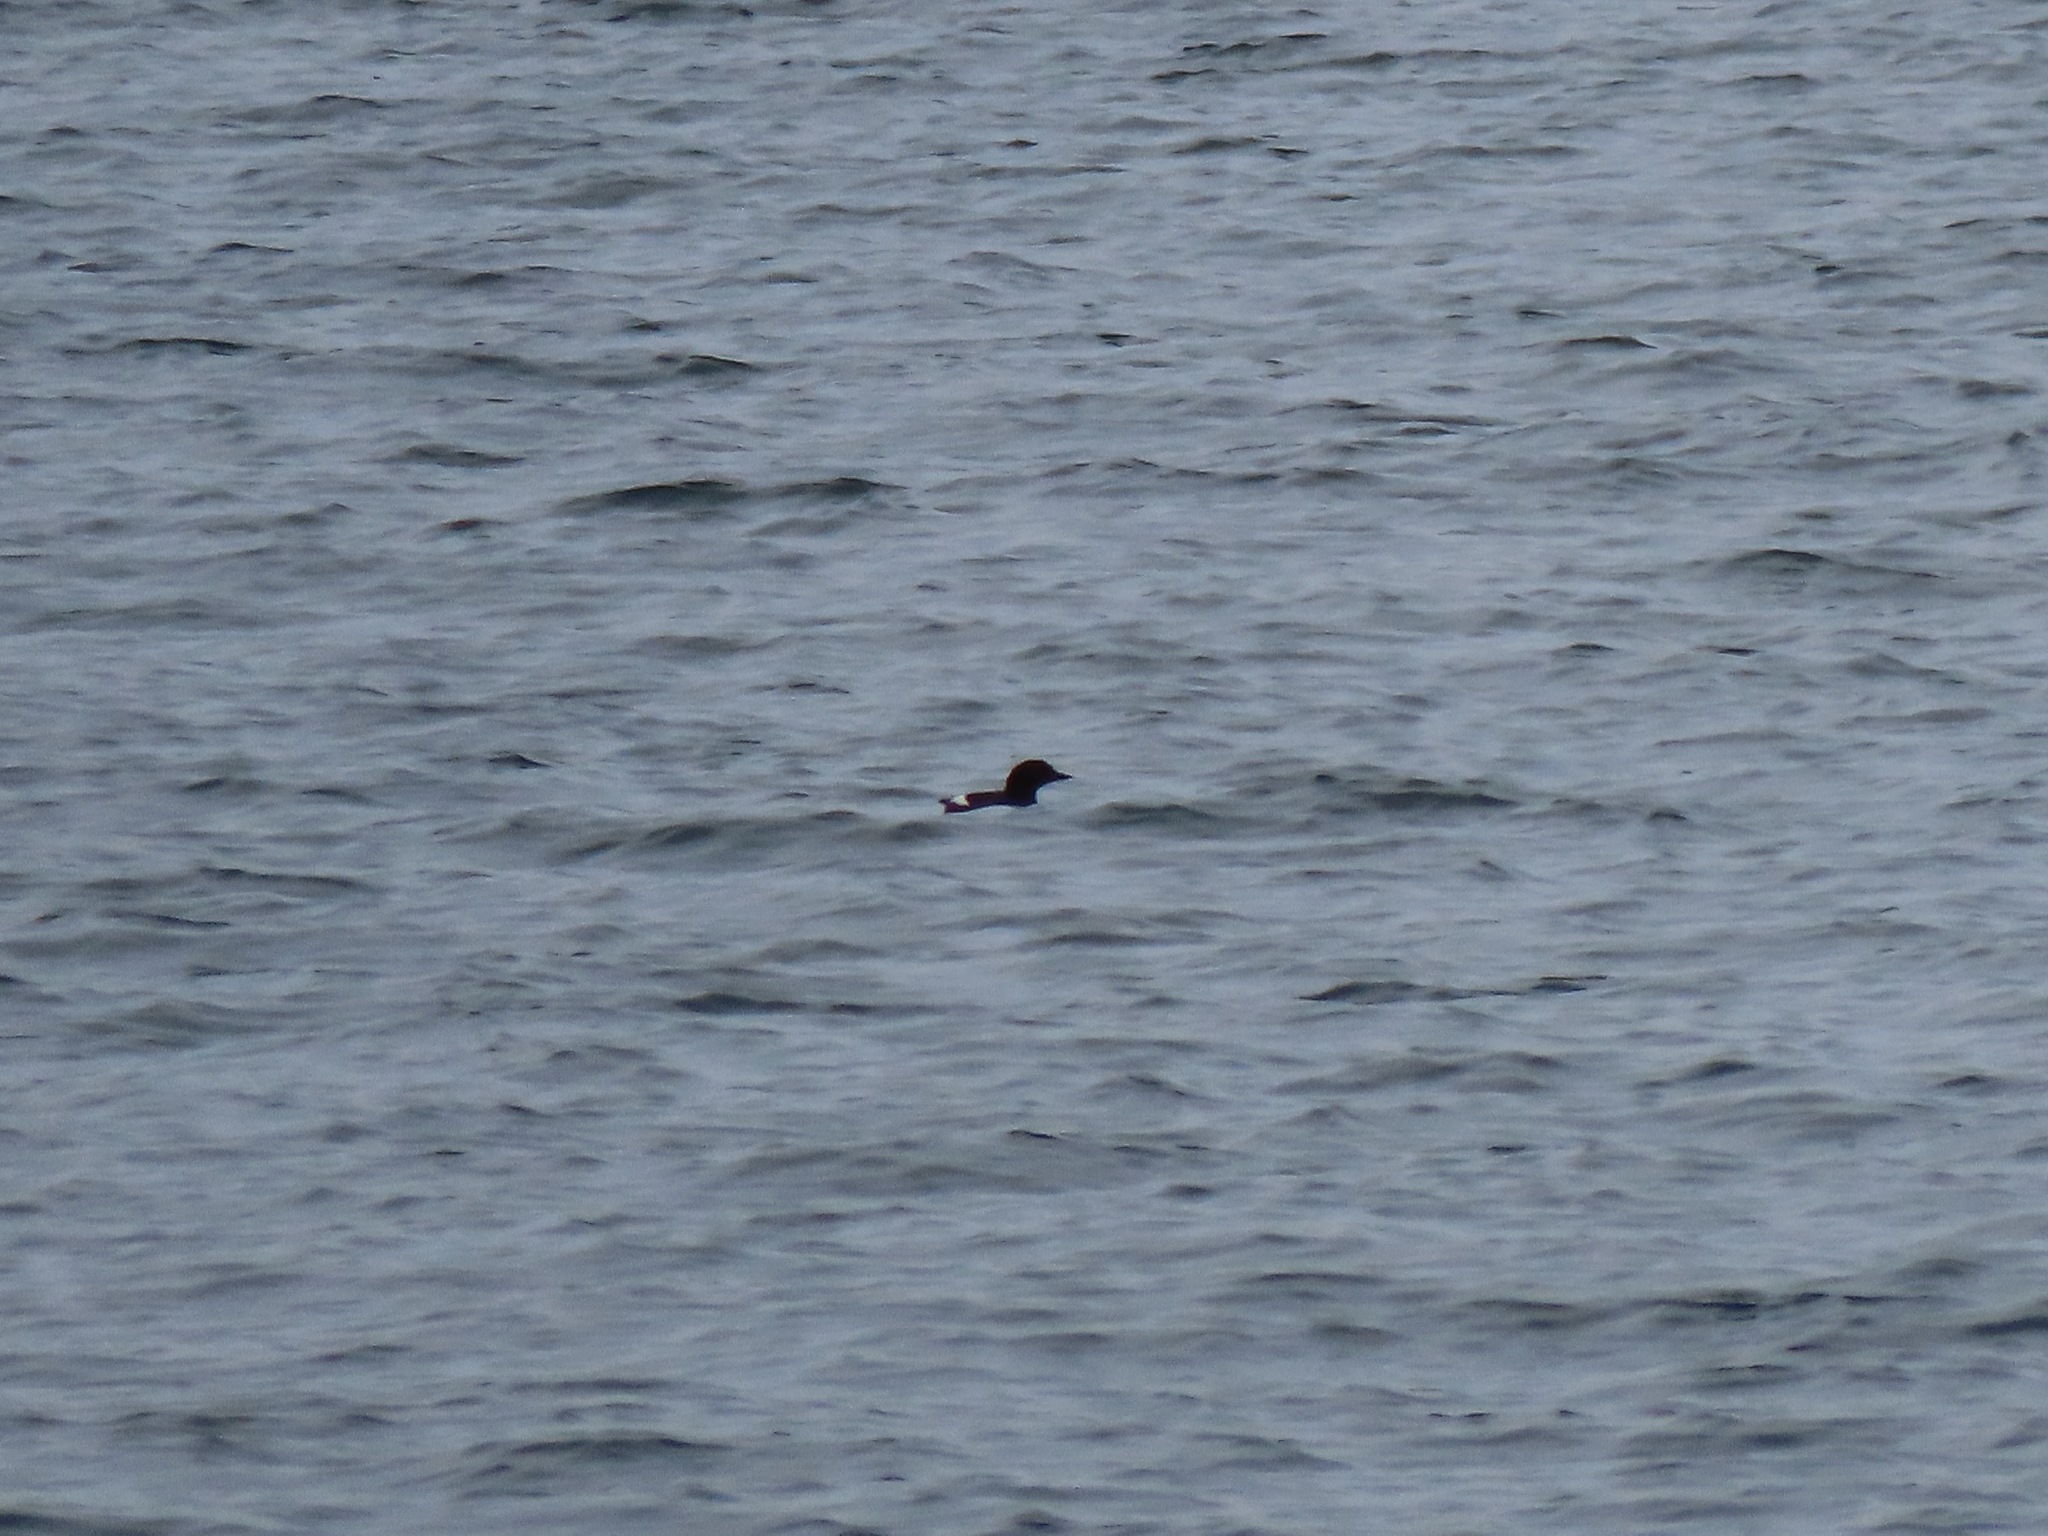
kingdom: Animalia
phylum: Chordata
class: Aves
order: Charadriiformes
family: Alcidae
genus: Cepphus
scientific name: Cepphus columba
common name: Pigeon guillemot
